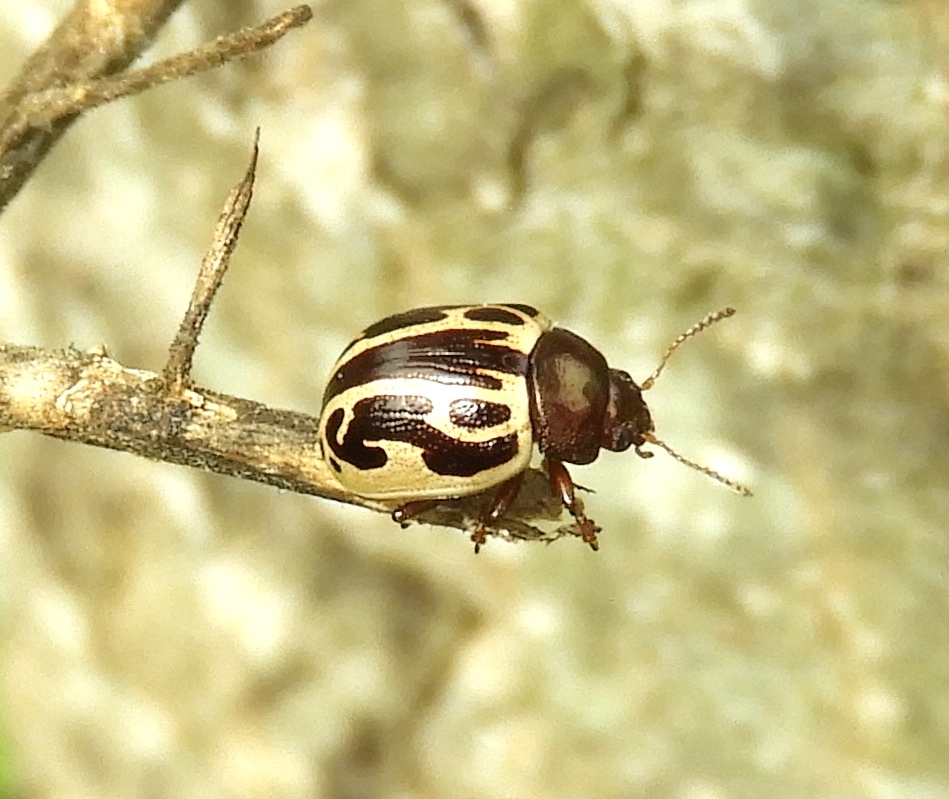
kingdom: Animalia
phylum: Arthropoda
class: Insecta
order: Coleoptera
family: Chrysomelidae
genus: Calligrapha
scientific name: Calligrapha
